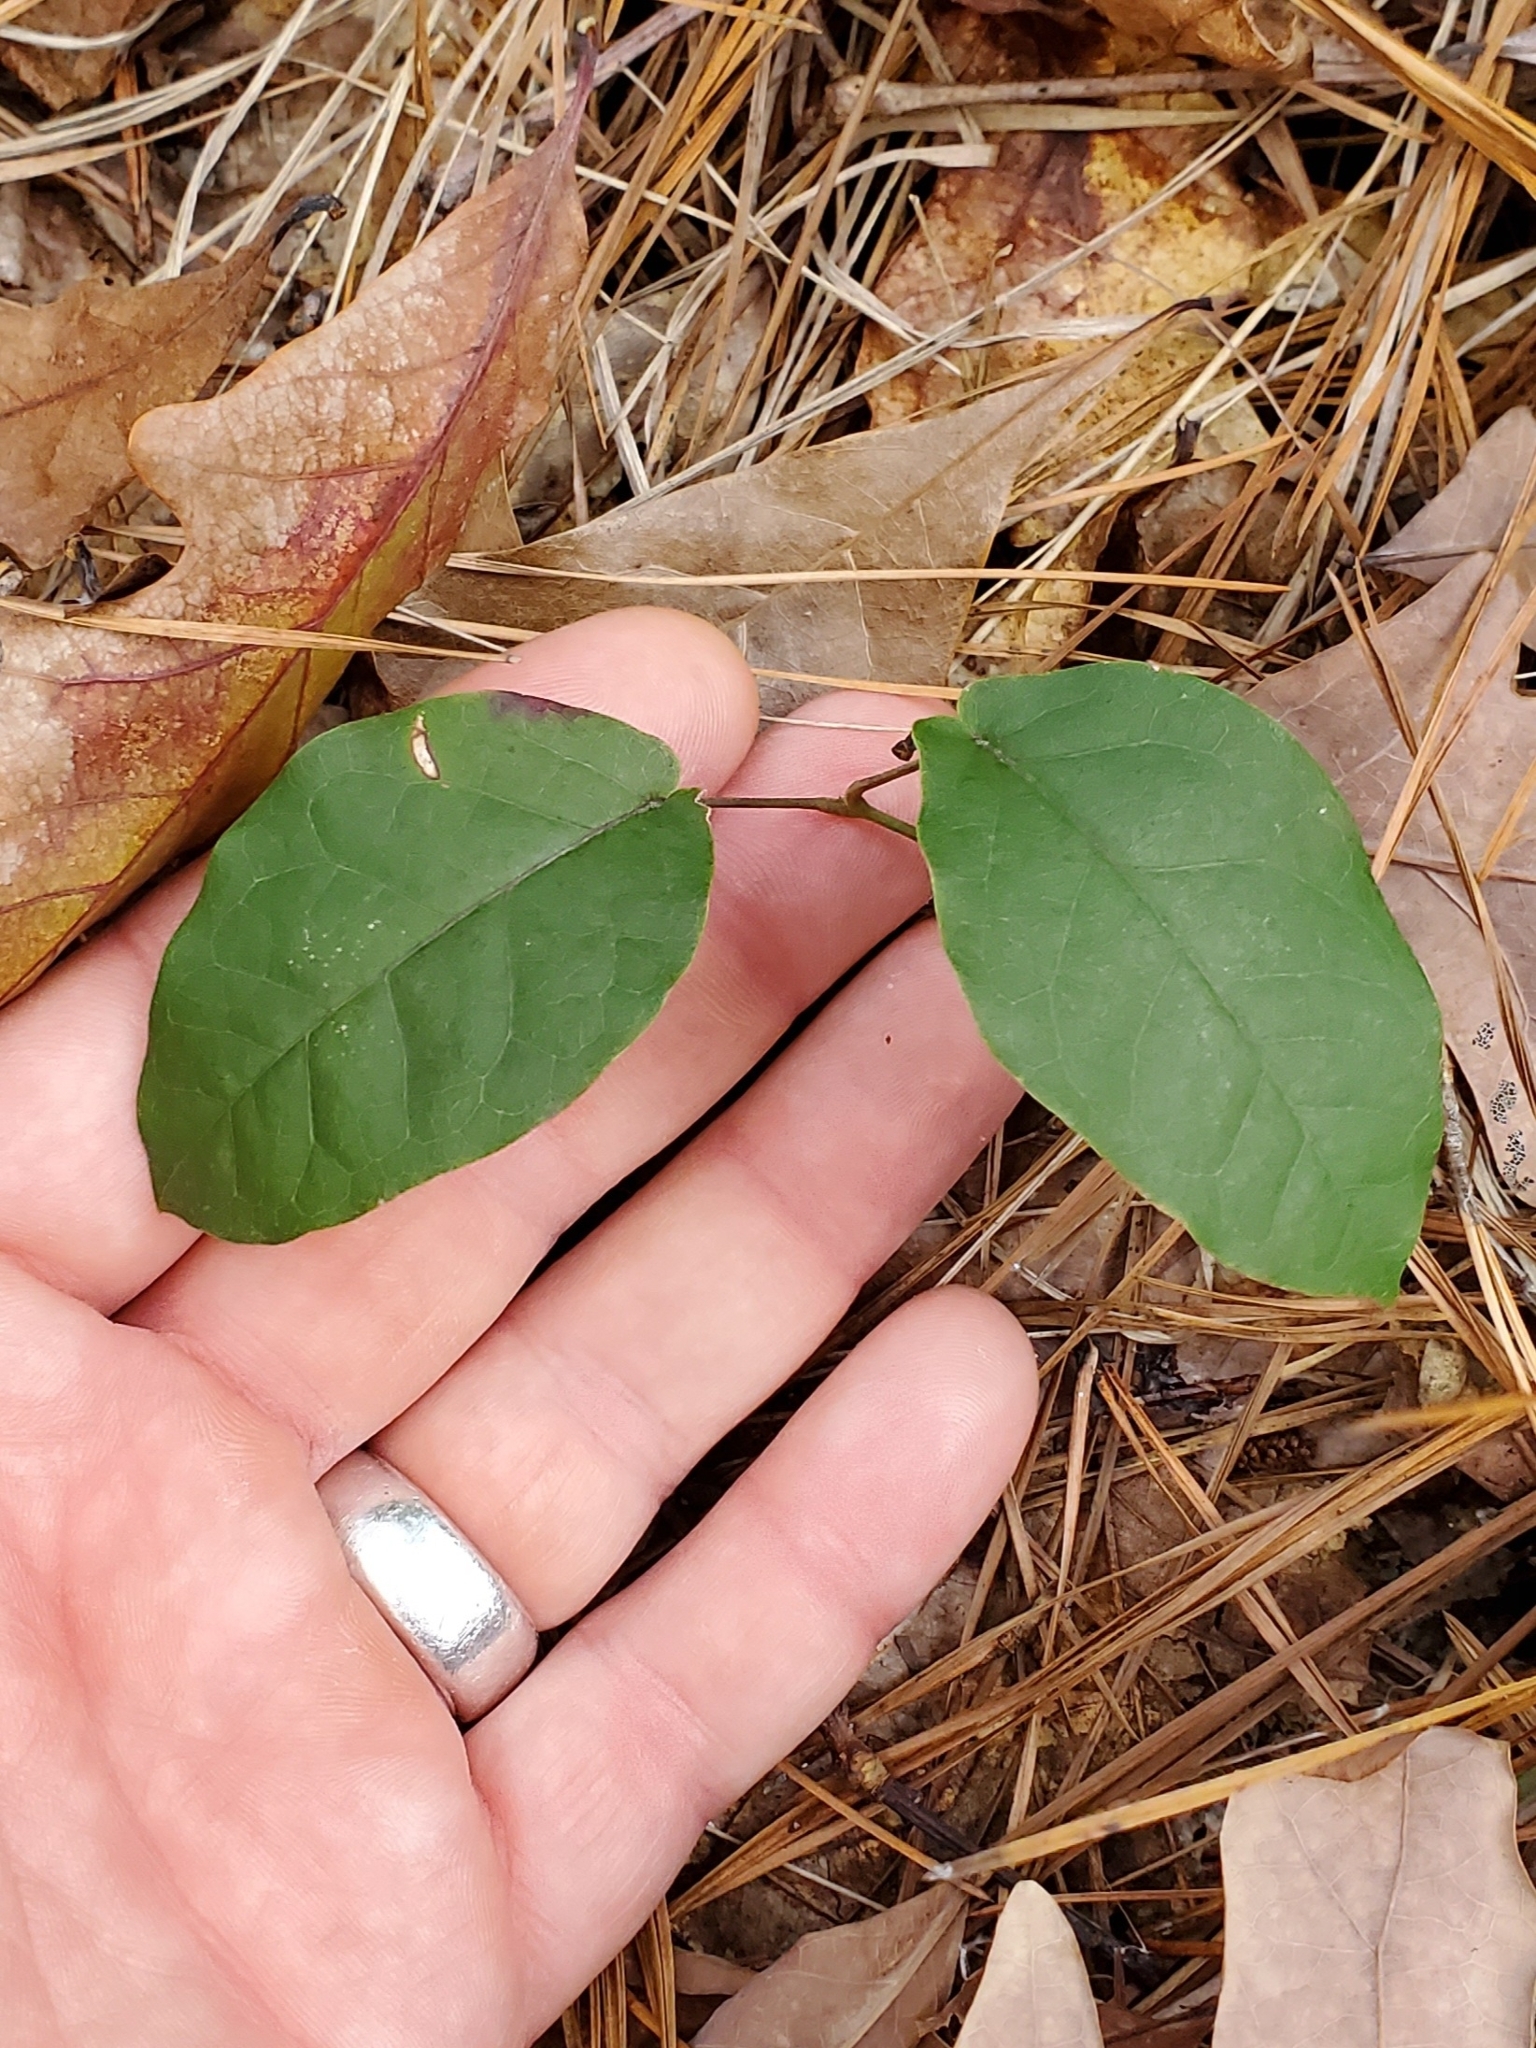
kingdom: Plantae
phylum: Tracheophyta
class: Magnoliopsida
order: Lamiales
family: Bignoniaceae
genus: Bignonia
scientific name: Bignonia capreolata
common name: Crossvine
